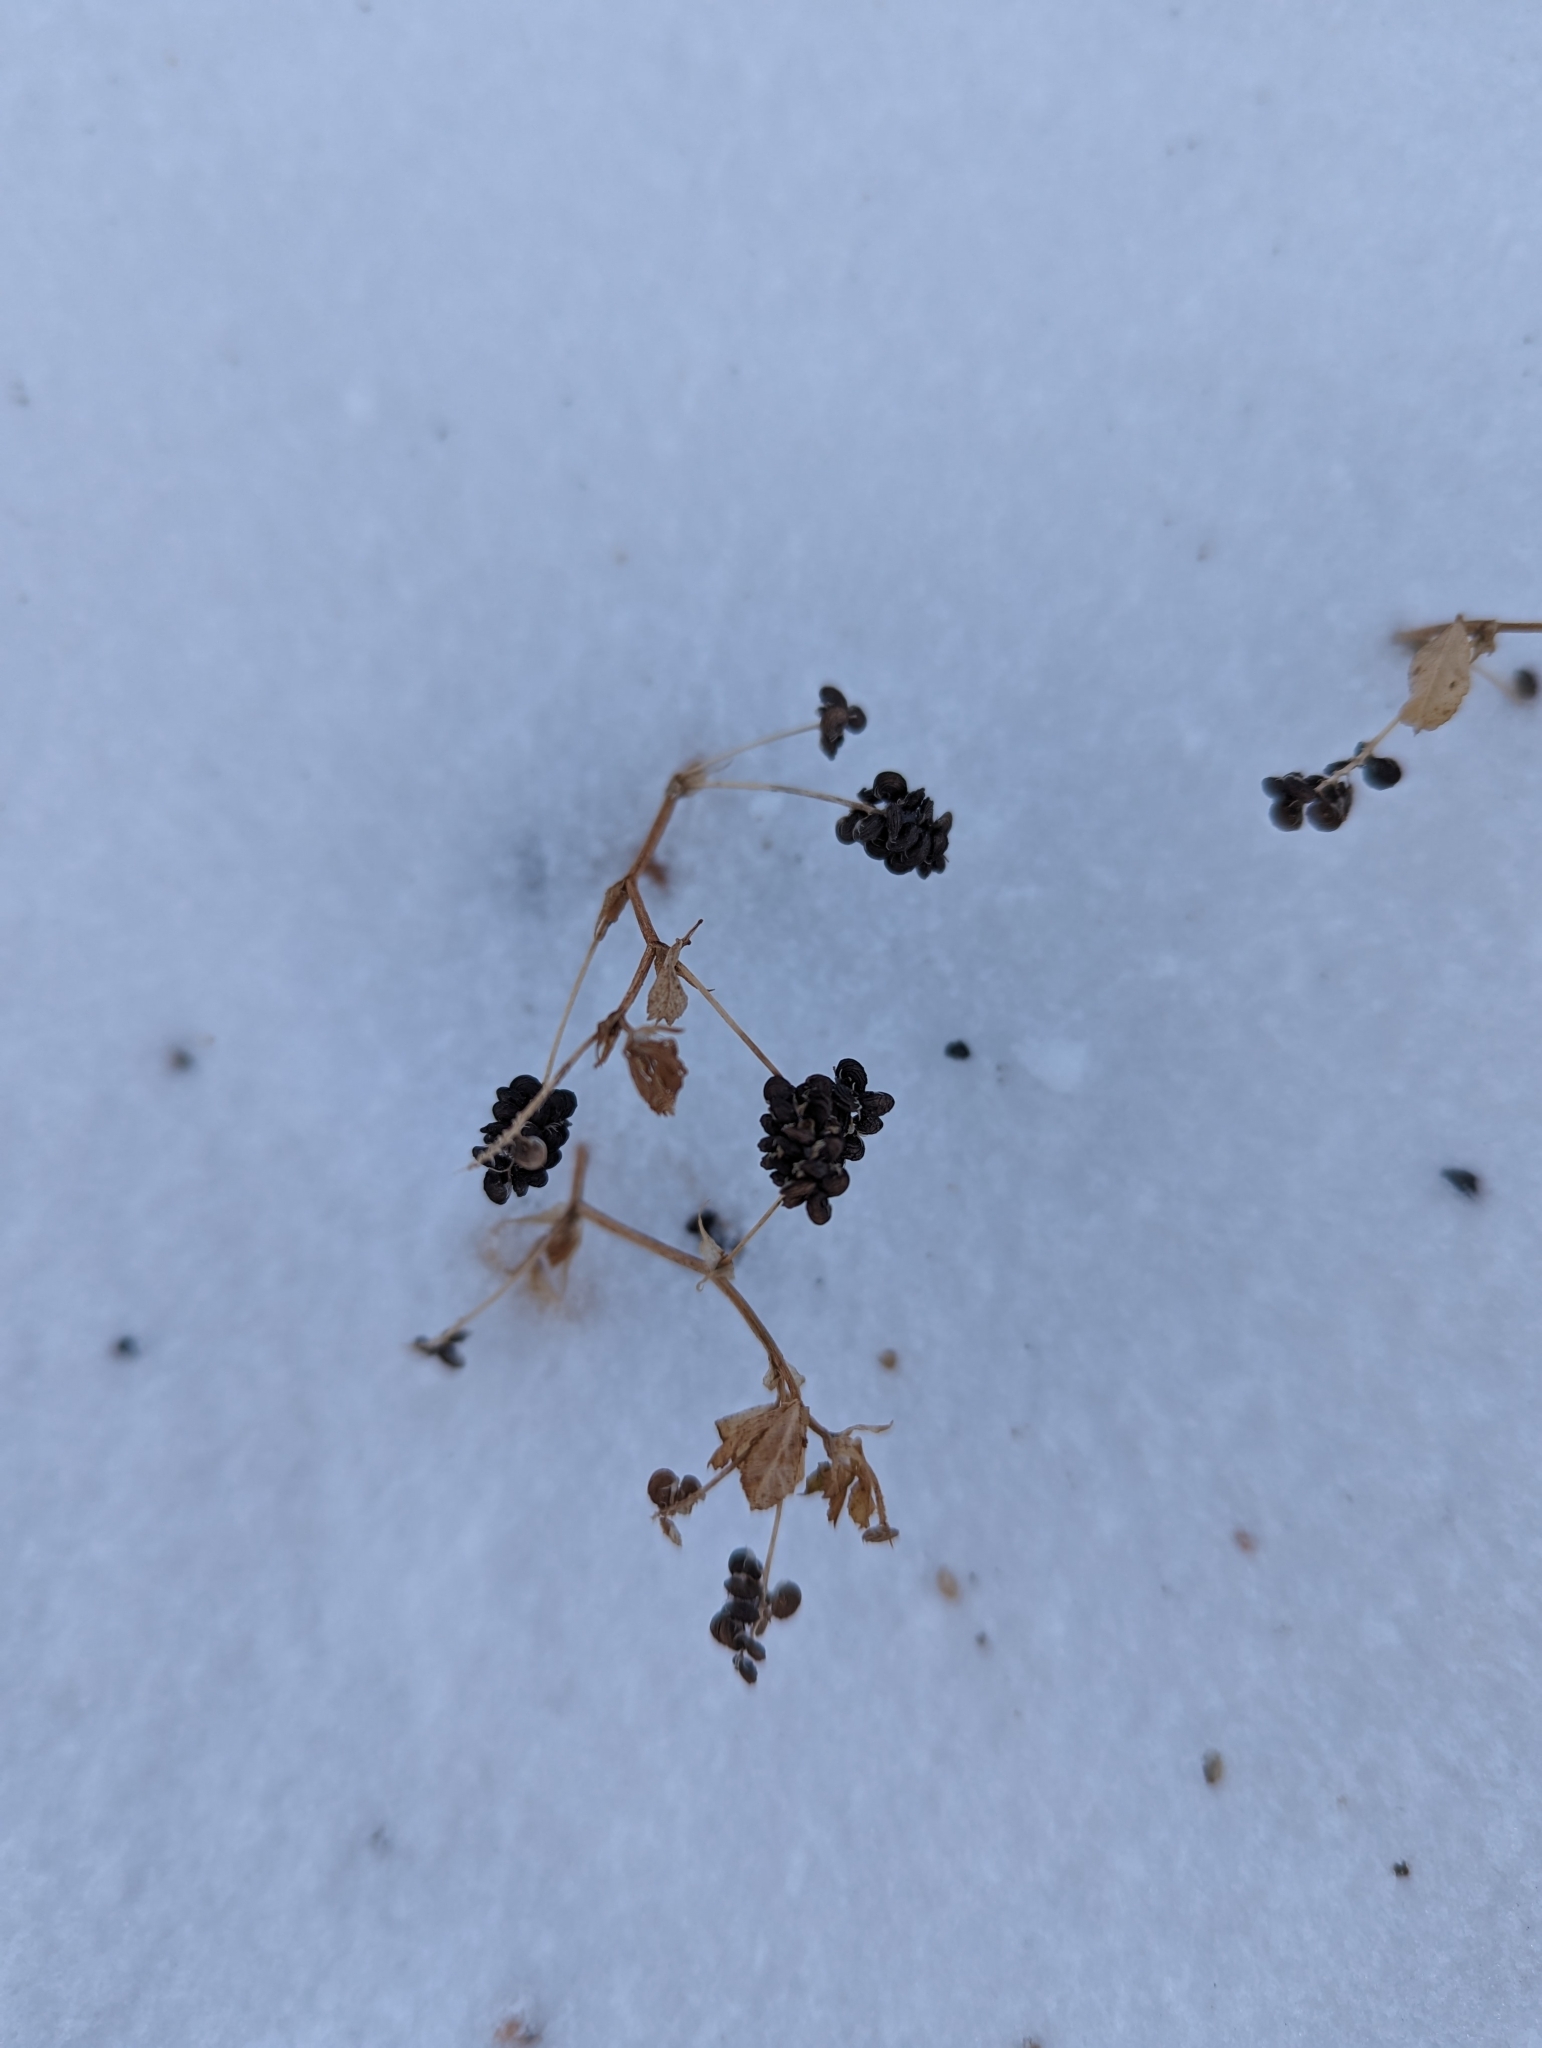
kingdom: Plantae
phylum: Tracheophyta
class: Magnoliopsida
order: Fabales
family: Fabaceae
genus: Medicago
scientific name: Medicago lupulina
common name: Black medick
